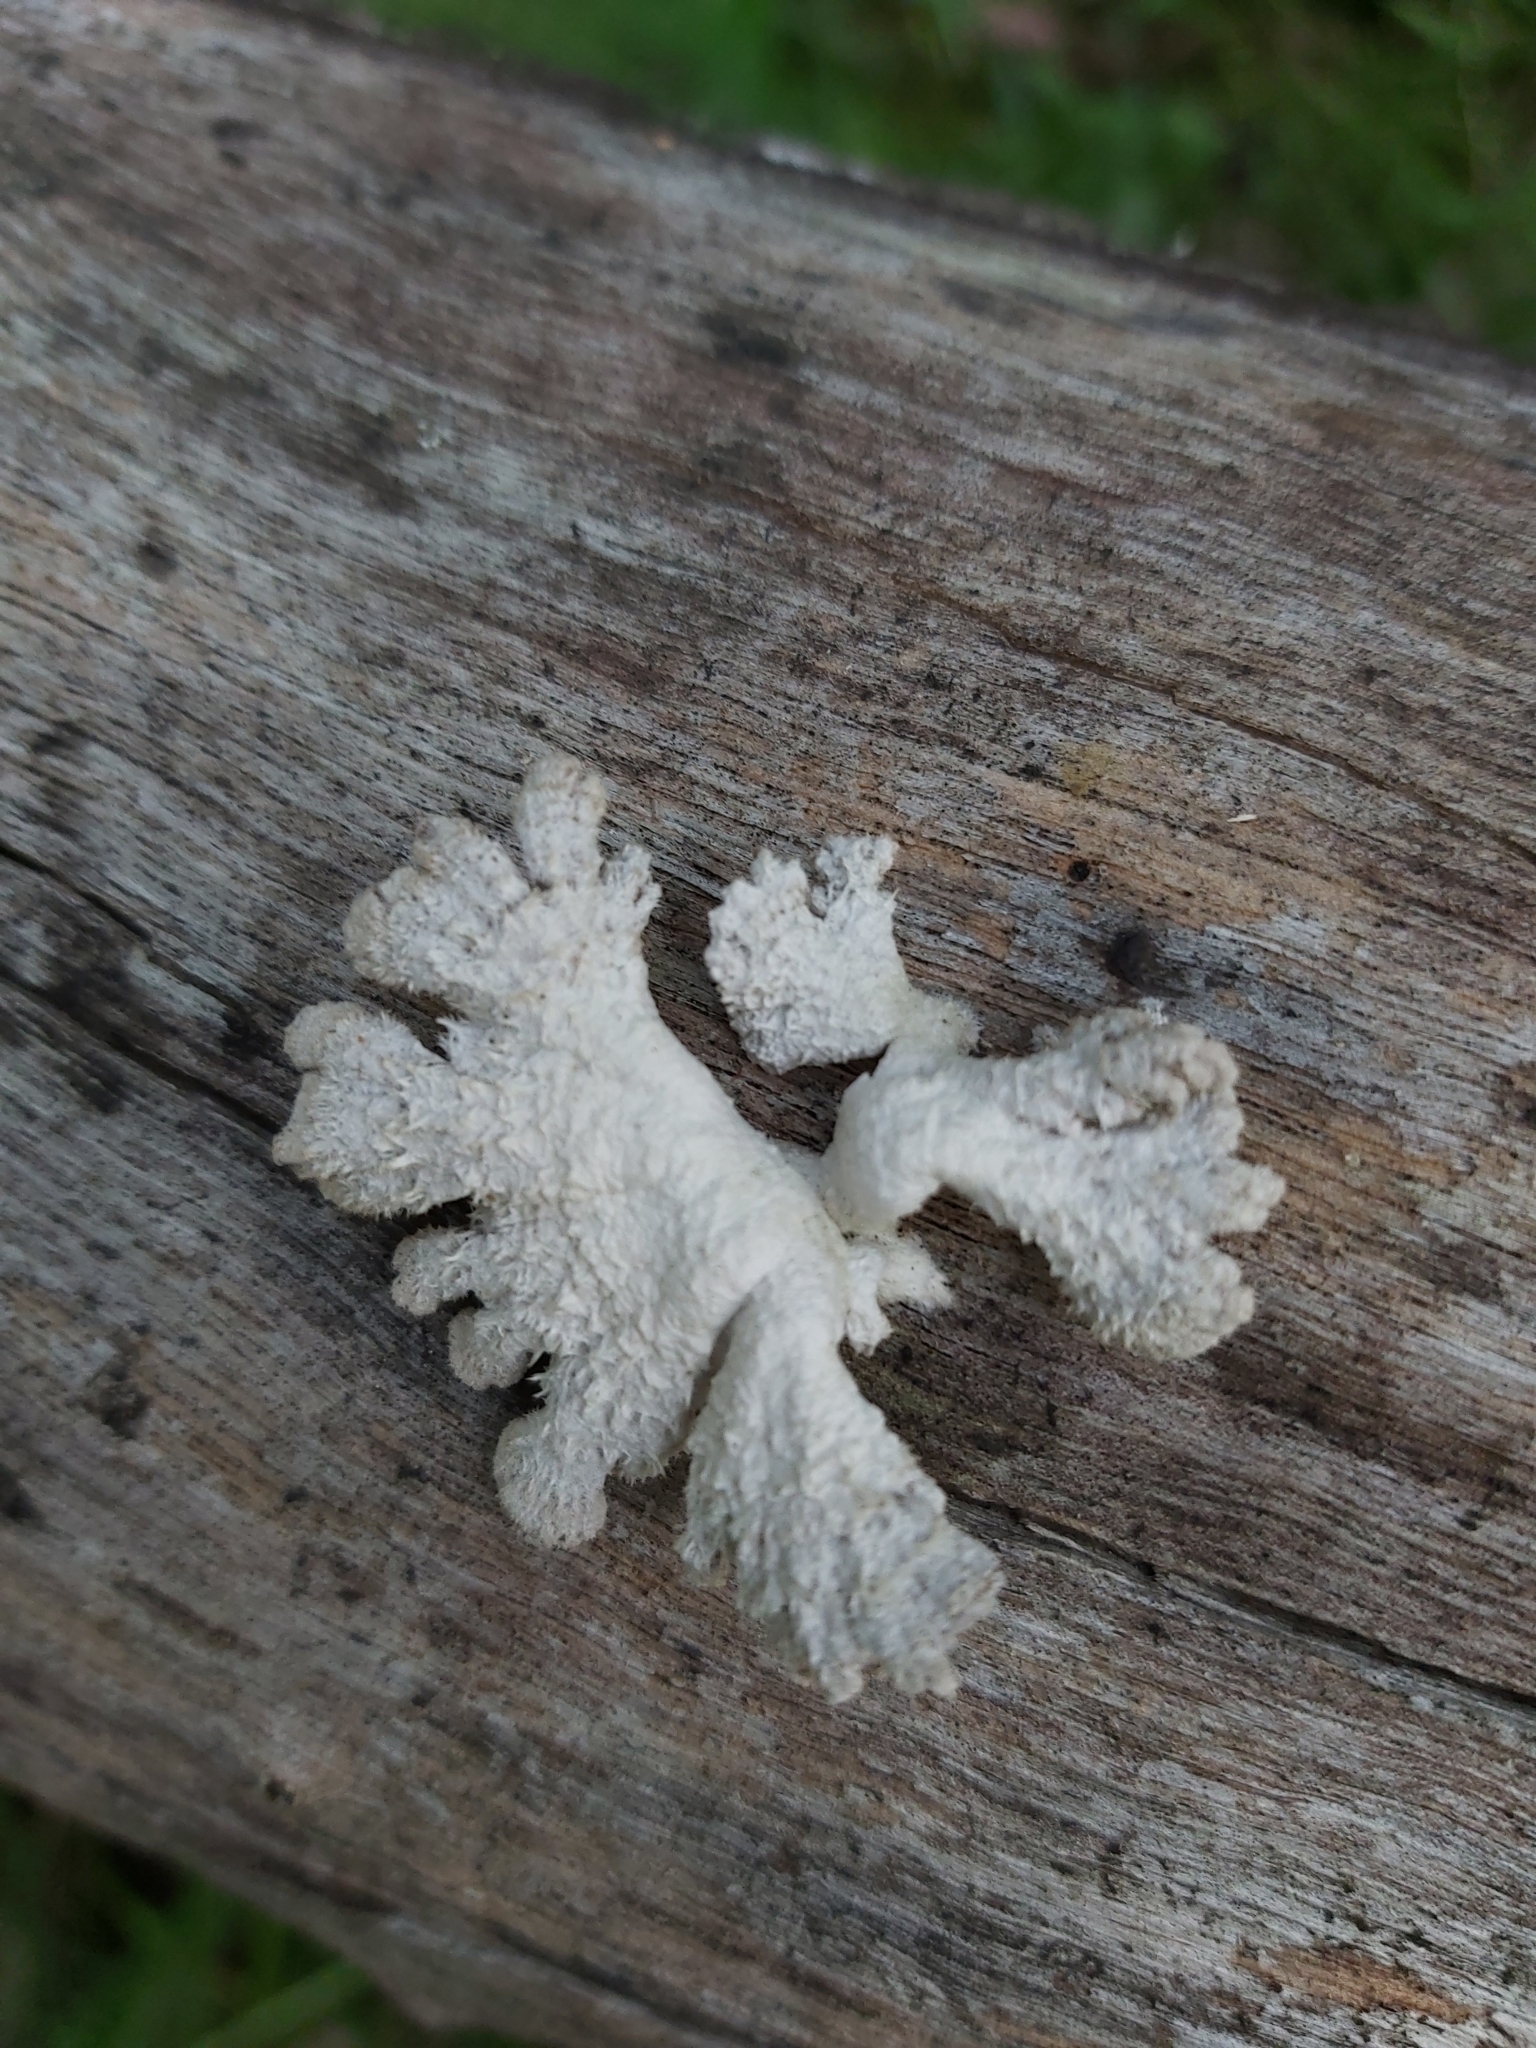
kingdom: Fungi
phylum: Basidiomycota
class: Agaricomycetes
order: Agaricales
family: Schizophyllaceae
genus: Schizophyllum
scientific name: Schizophyllum commune
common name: Common porecrust
